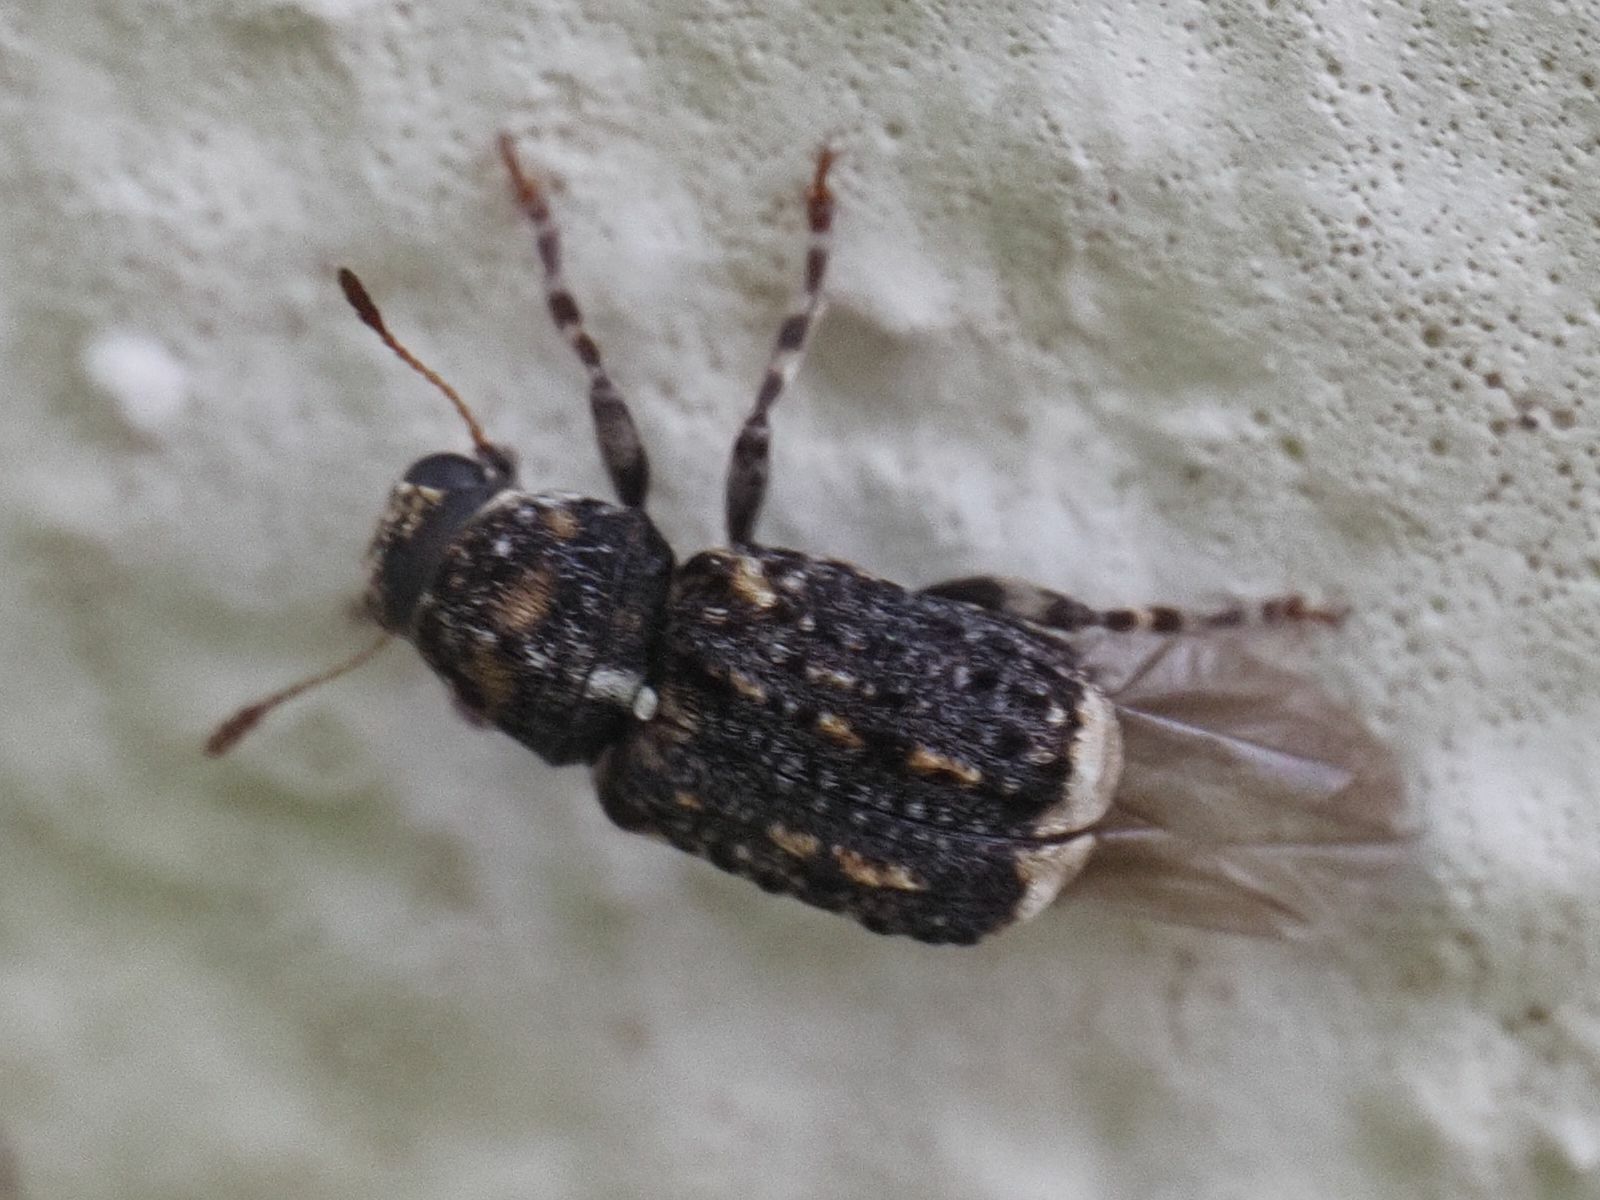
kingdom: Animalia
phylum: Arthropoda
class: Insecta
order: Coleoptera
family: Anthribidae
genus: Dissoleucas
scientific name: Dissoleucas niveirostris
